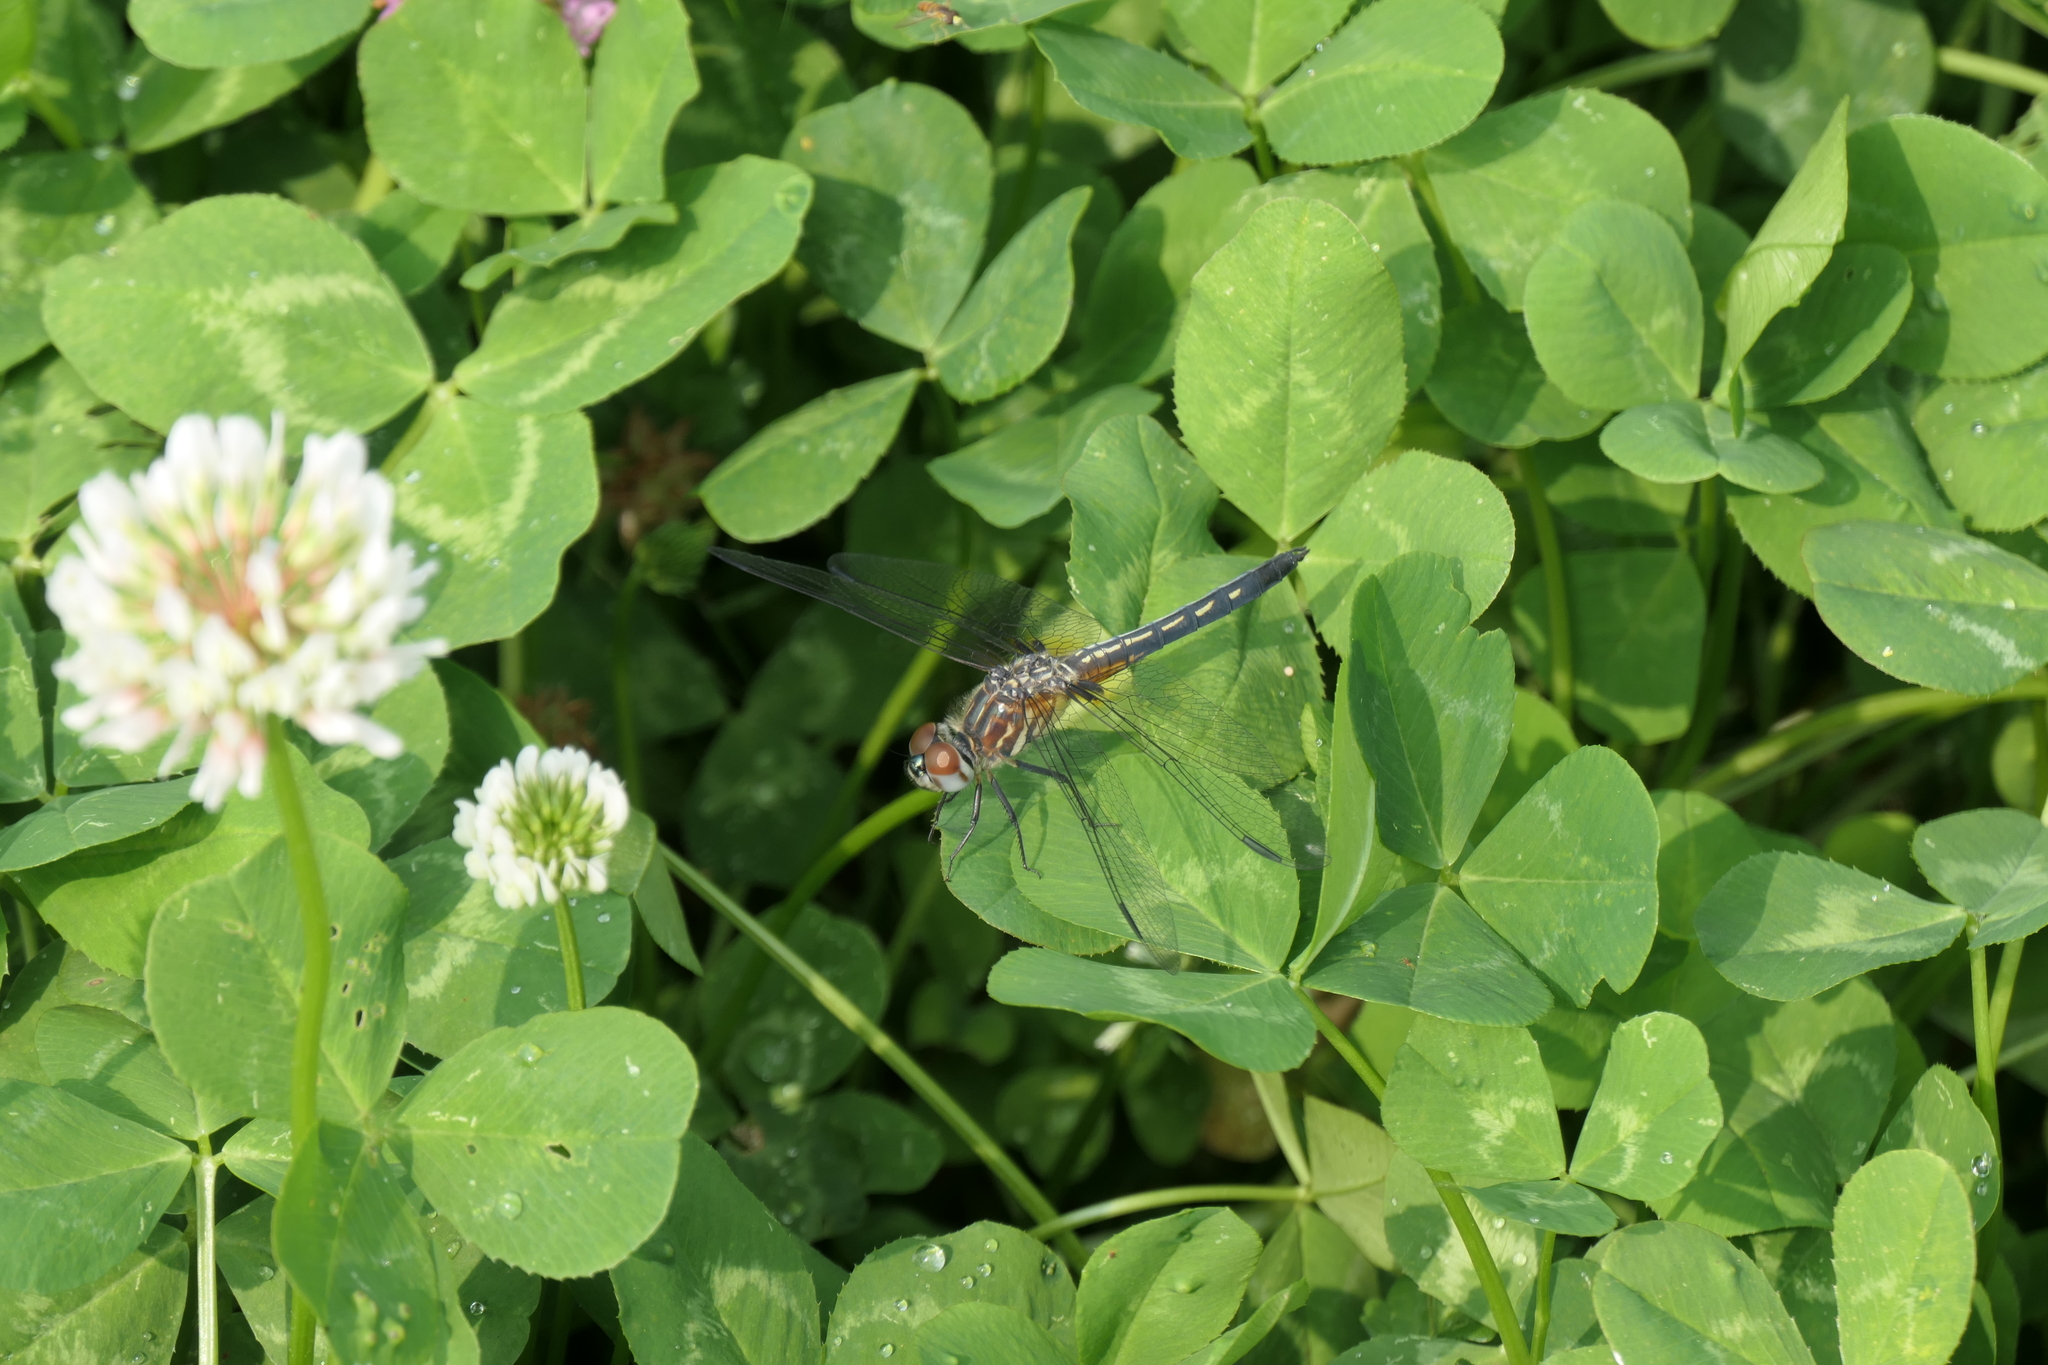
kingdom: Animalia
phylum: Arthropoda
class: Insecta
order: Odonata
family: Libellulidae
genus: Pachydiplax
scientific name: Pachydiplax longipennis
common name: Blue dasher
